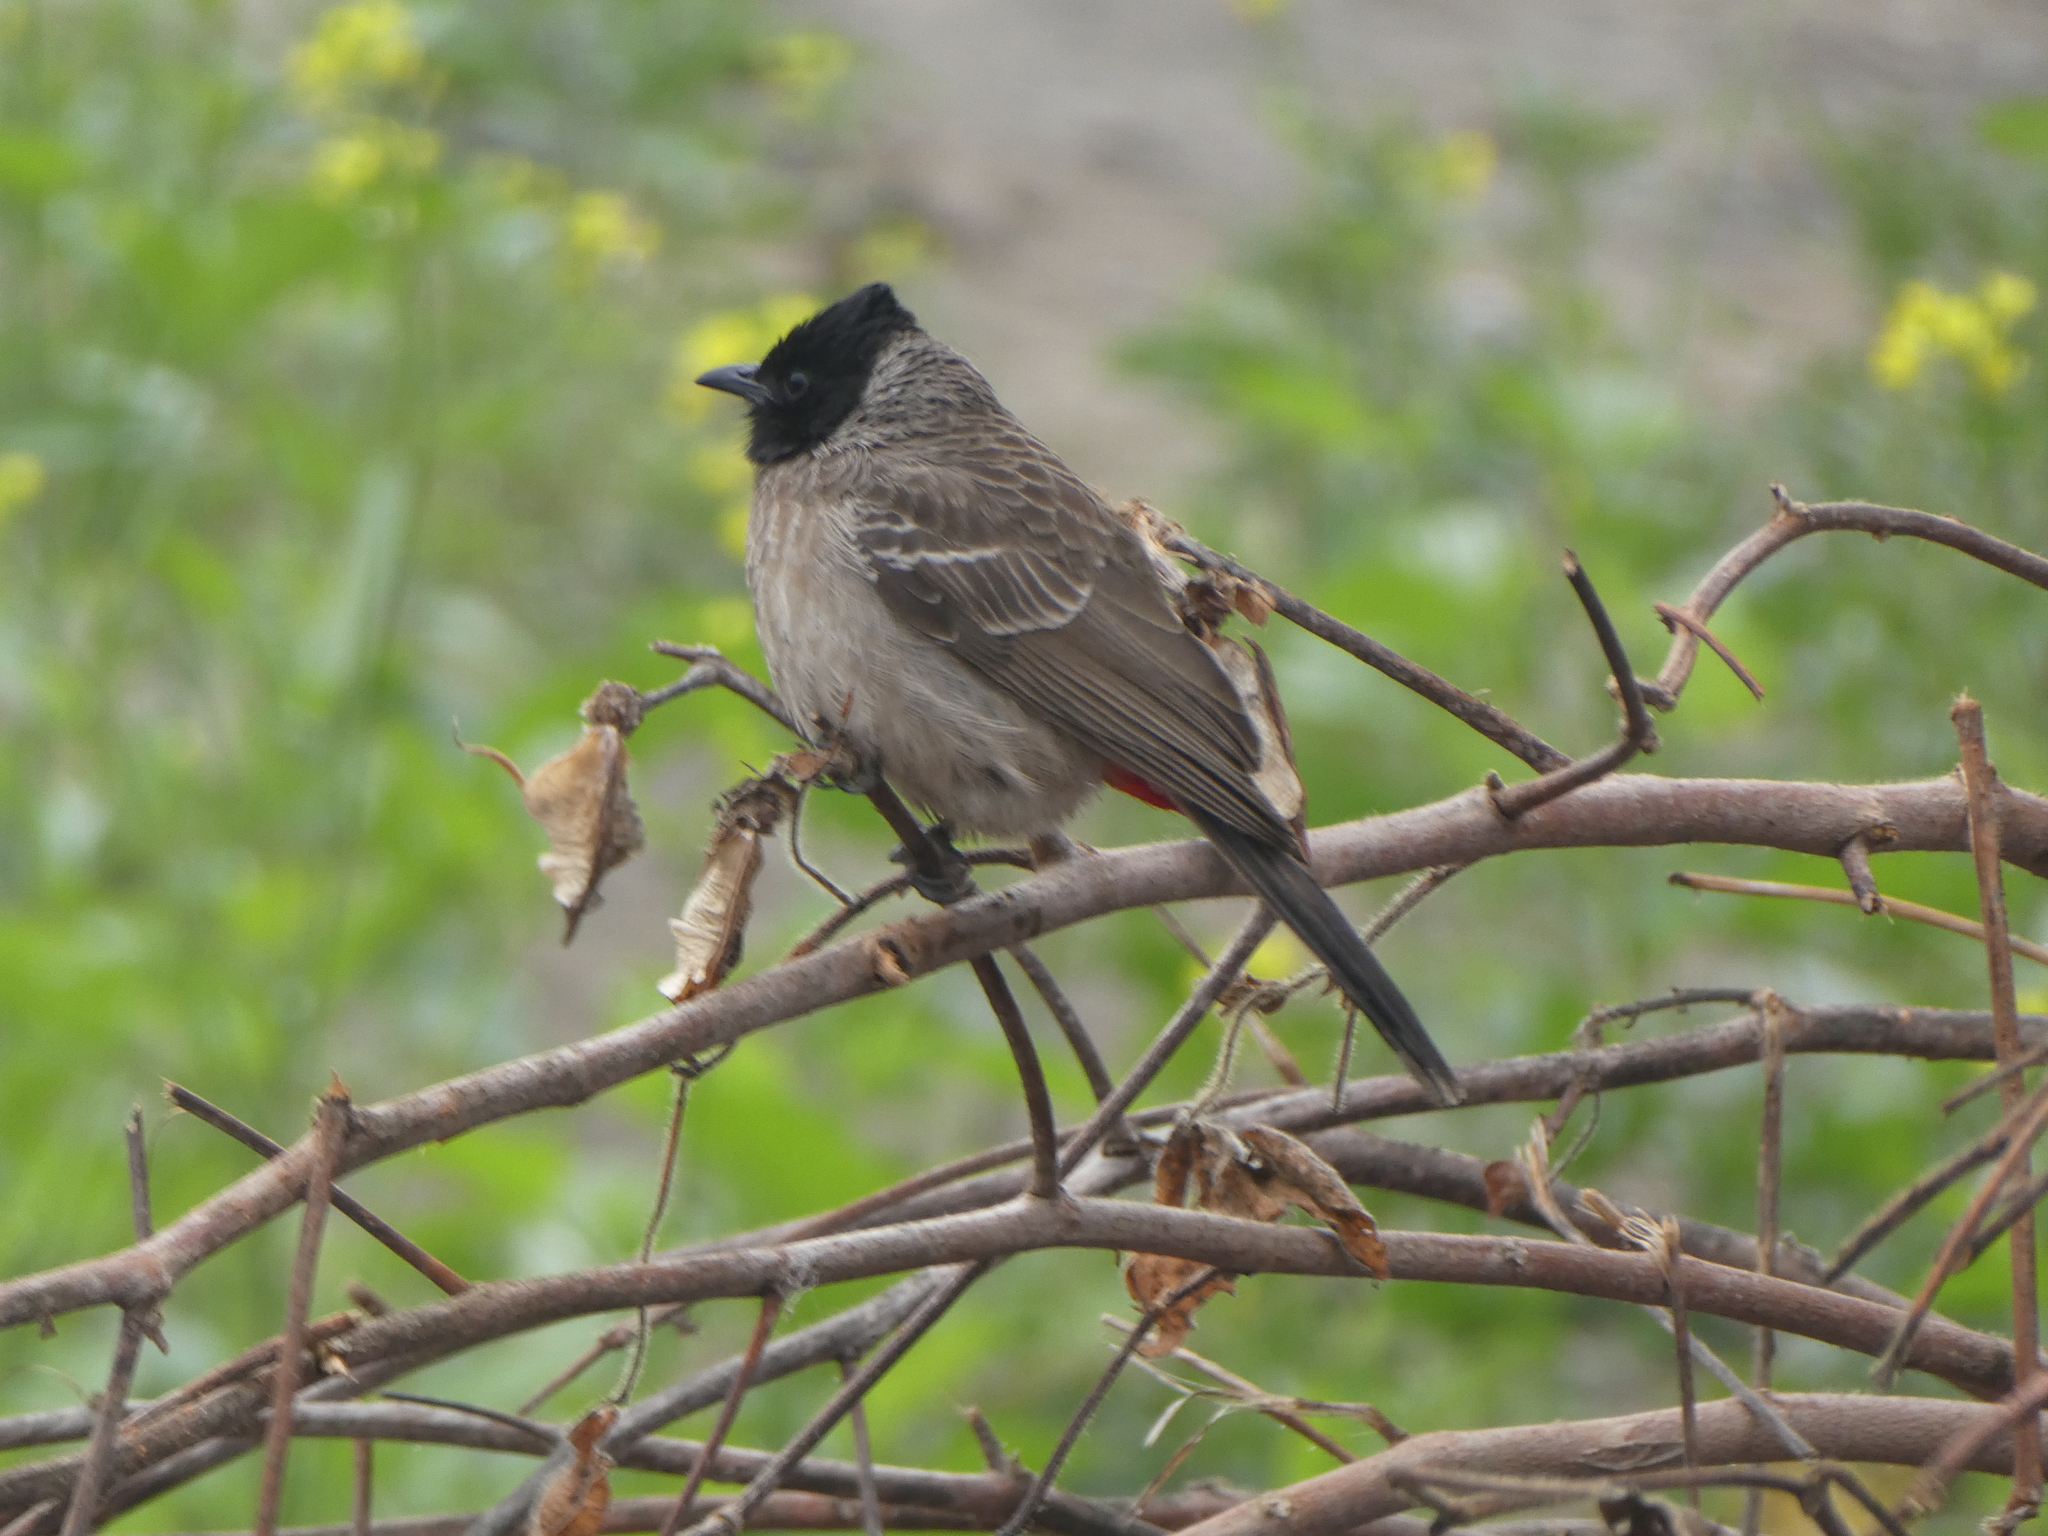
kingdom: Animalia
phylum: Chordata
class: Aves
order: Passeriformes
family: Pycnonotidae
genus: Pycnonotus
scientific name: Pycnonotus cafer
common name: Red-vented bulbul
